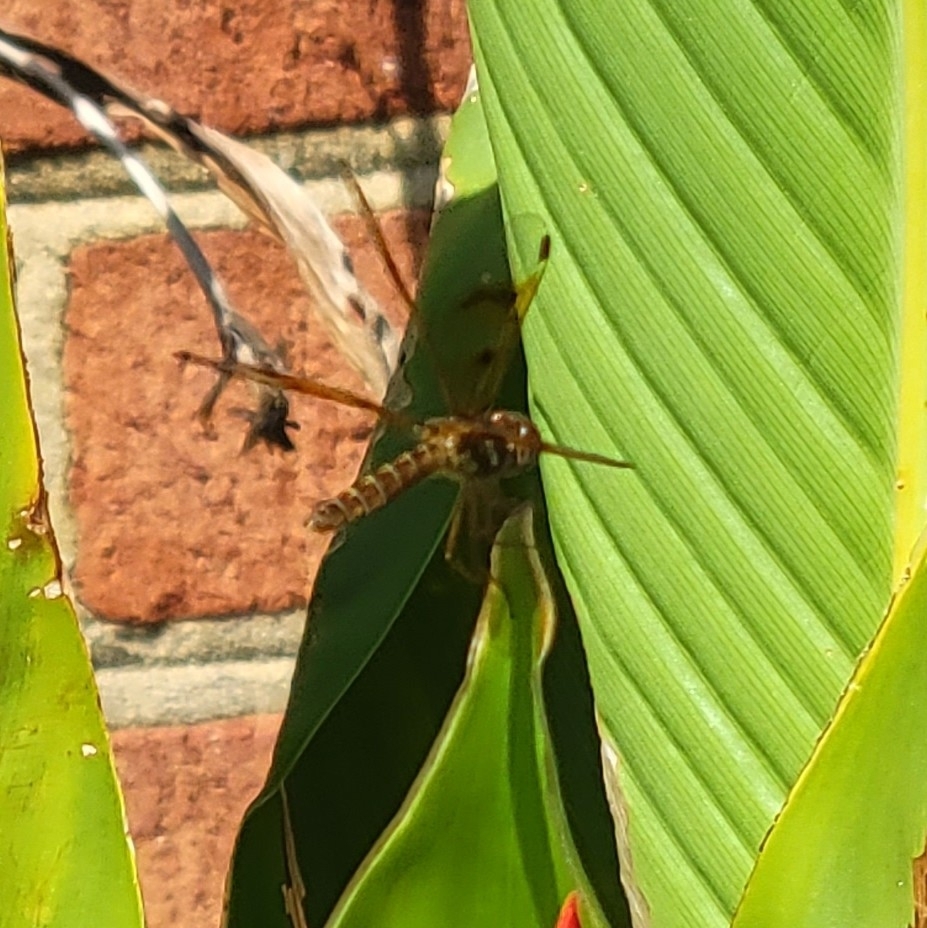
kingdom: Animalia
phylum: Arthropoda
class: Insecta
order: Odonata
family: Libellulidae
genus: Perithemis
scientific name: Perithemis tenera
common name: Eastern amberwing
